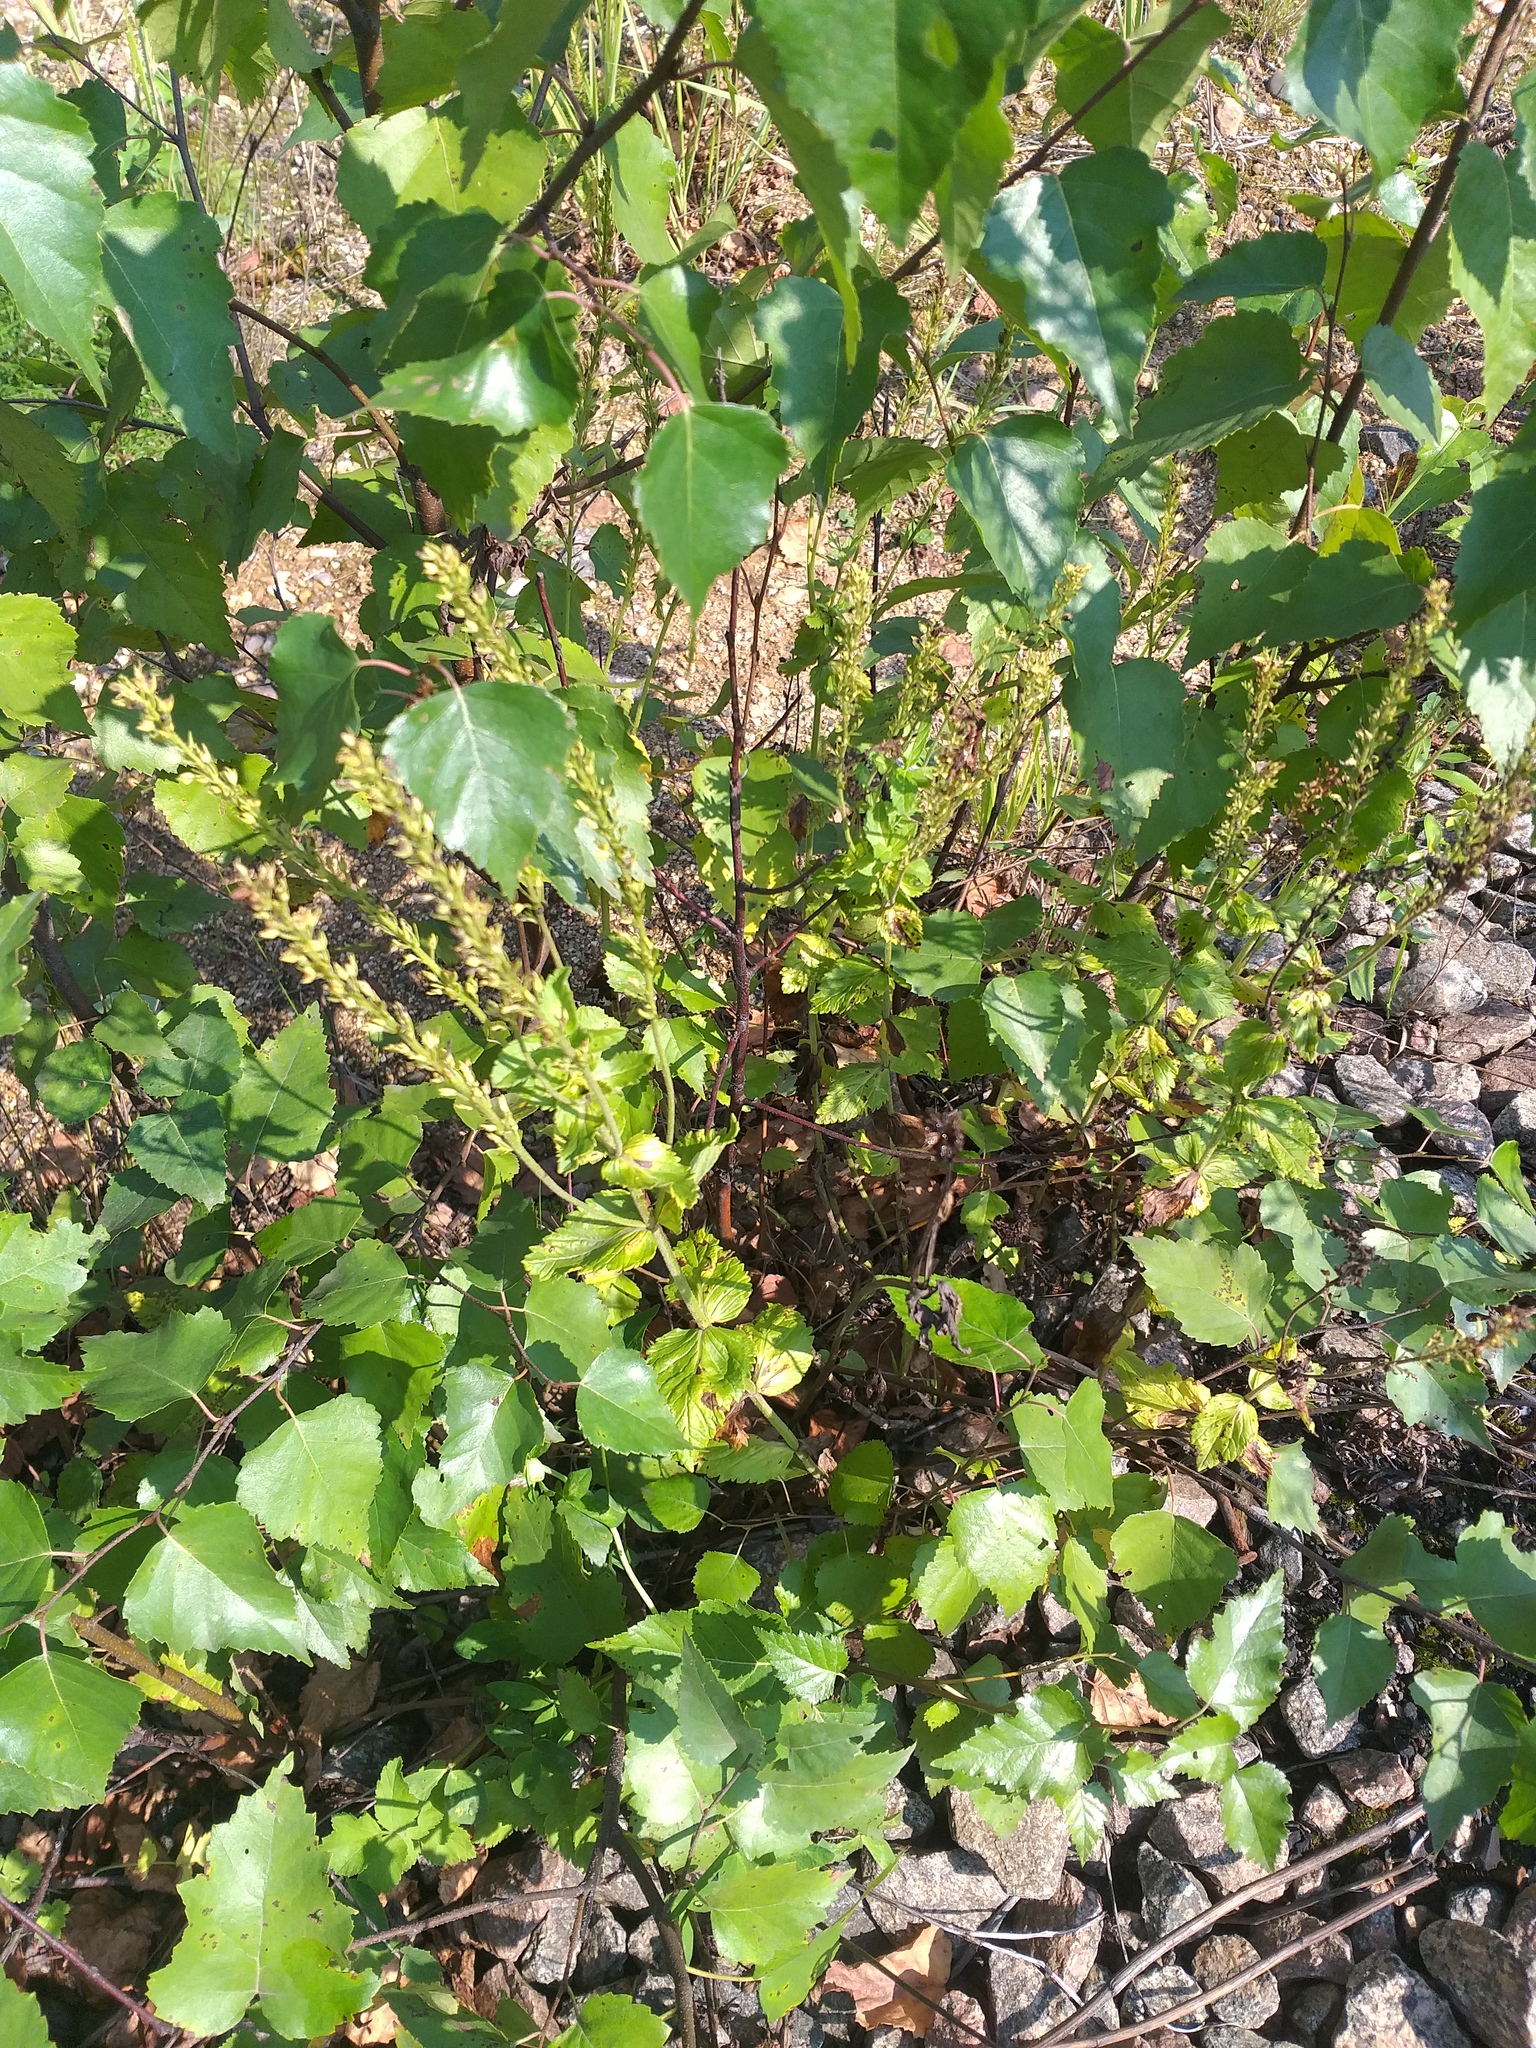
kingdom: Plantae
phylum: Tracheophyta
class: Magnoliopsida
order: Lamiales
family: Plantaginaceae
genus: Veronica
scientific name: Veronica teucrium
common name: Large speedwell
